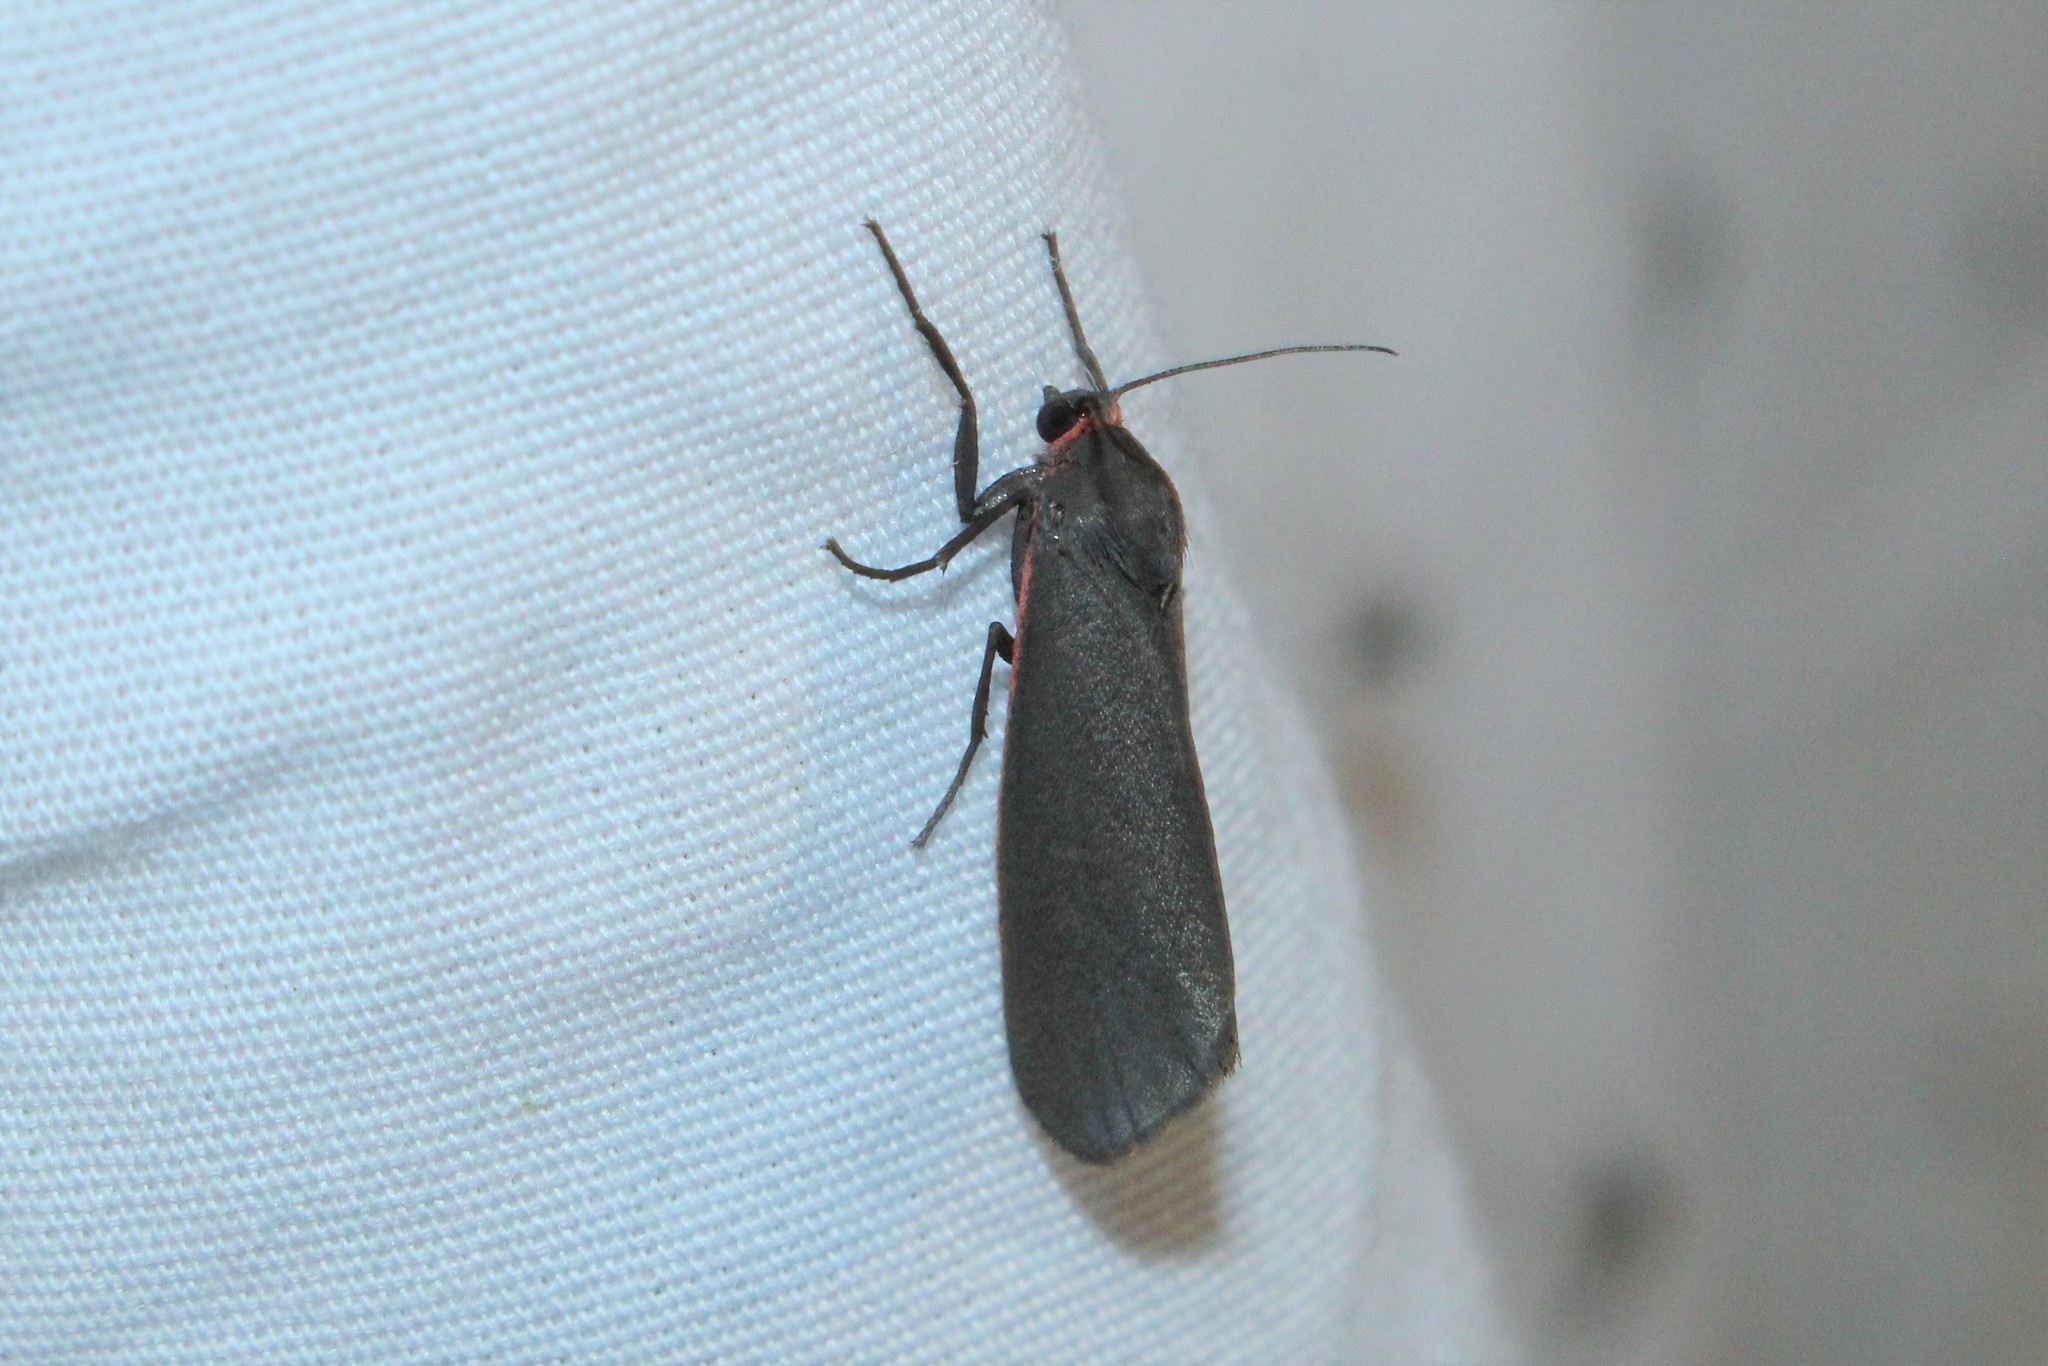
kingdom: Animalia
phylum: Arthropoda
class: Insecta
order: Lepidoptera
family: Erebidae
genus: Virbia
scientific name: Virbia laeta
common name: Joyful holomelina moth
